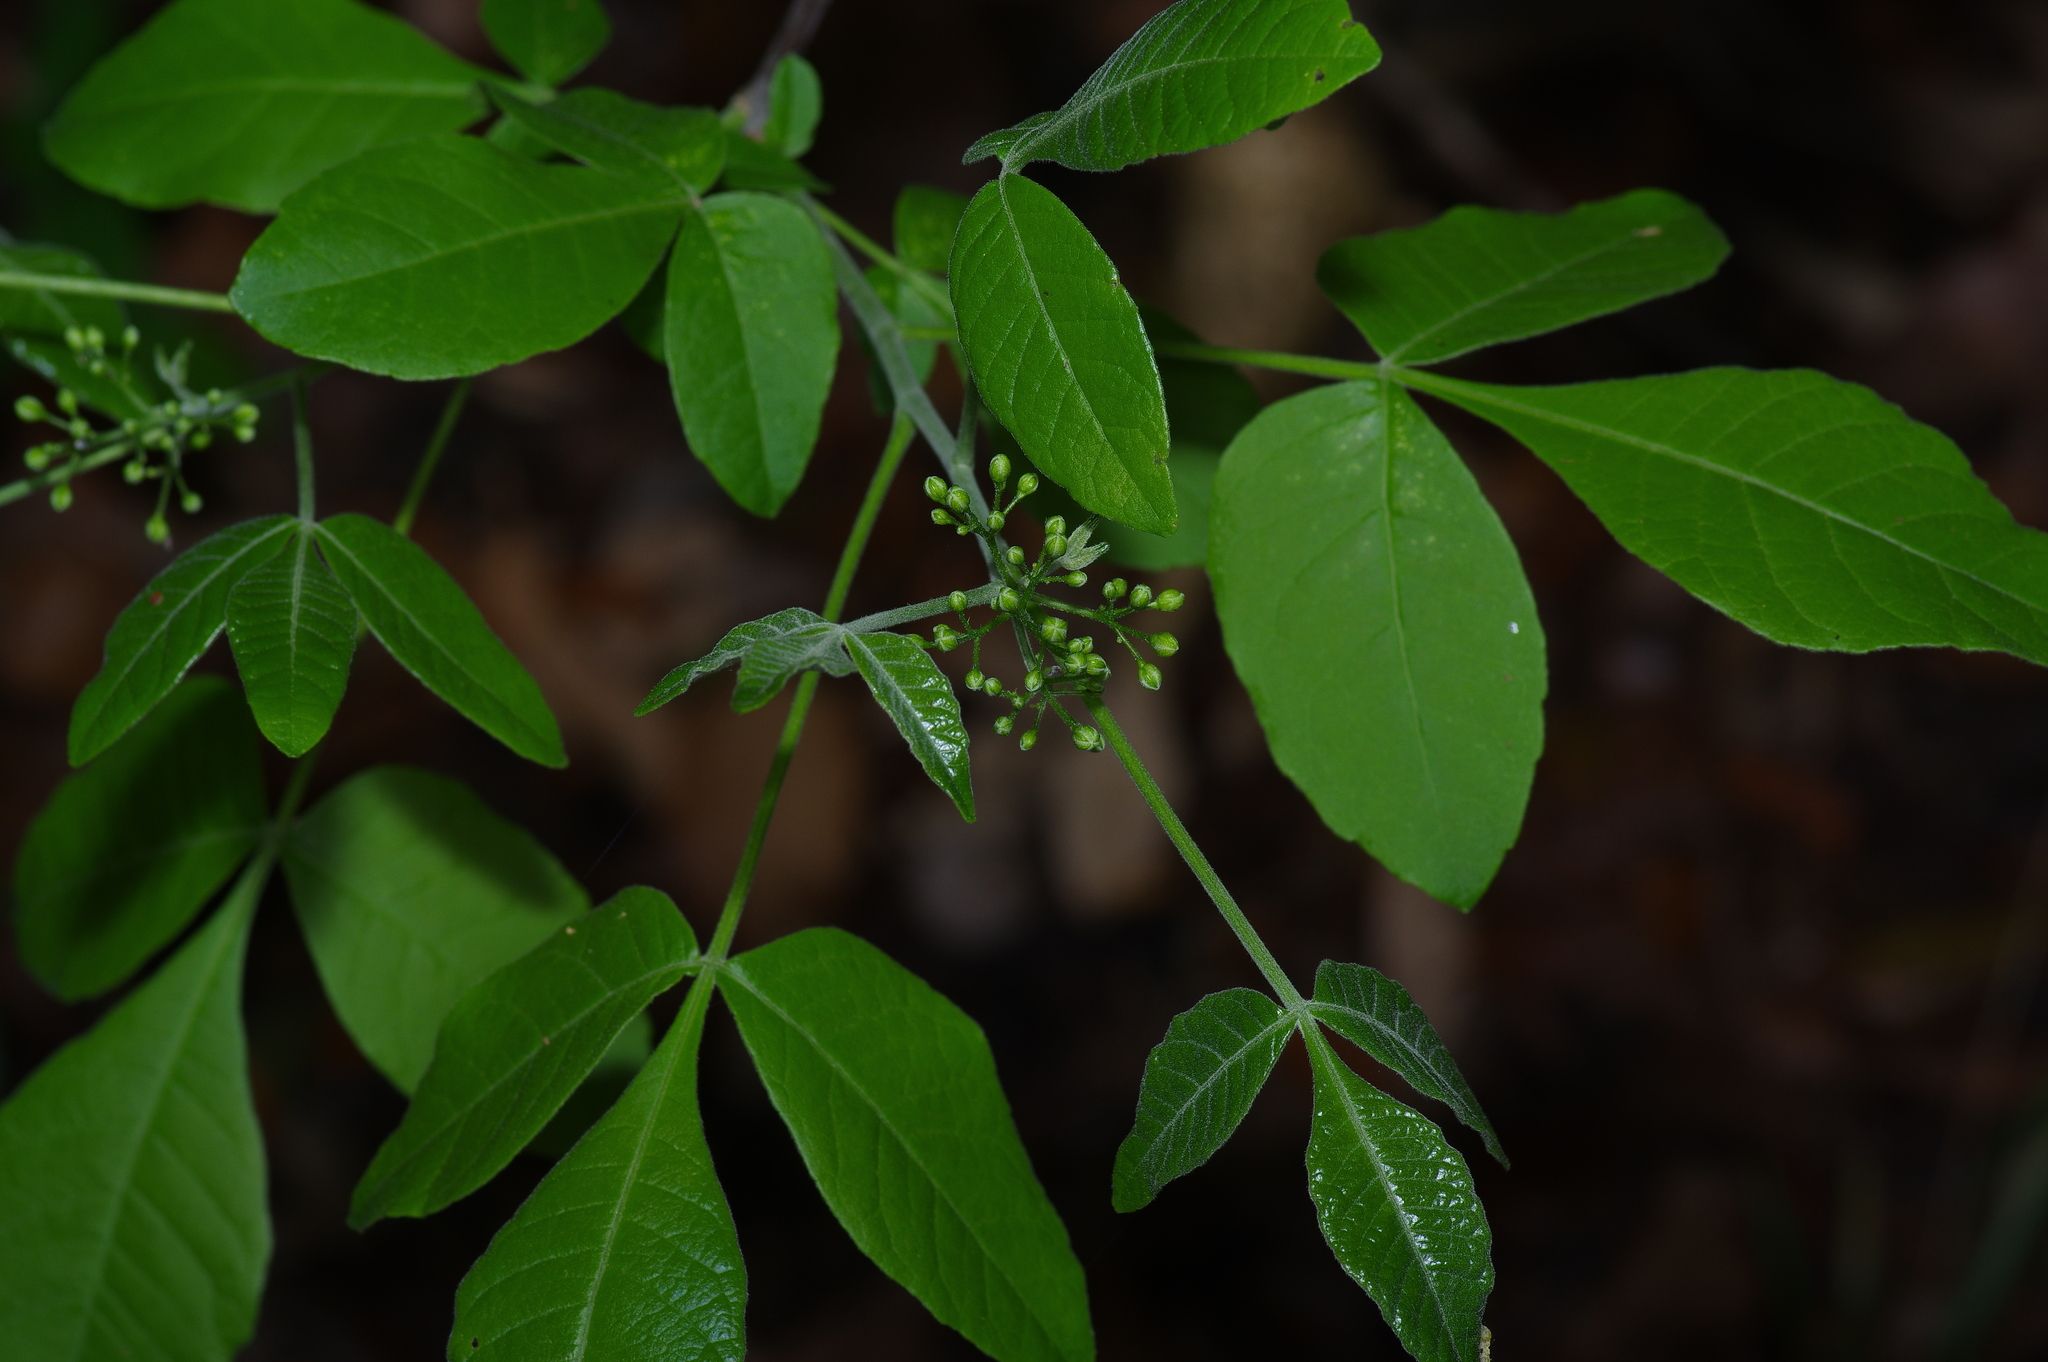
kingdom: Plantae
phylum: Tracheophyta
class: Magnoliopsida
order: Sapindales
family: Rutaceae
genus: Ptelea
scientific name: Ptelea trifoliata
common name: Common hop-tree
